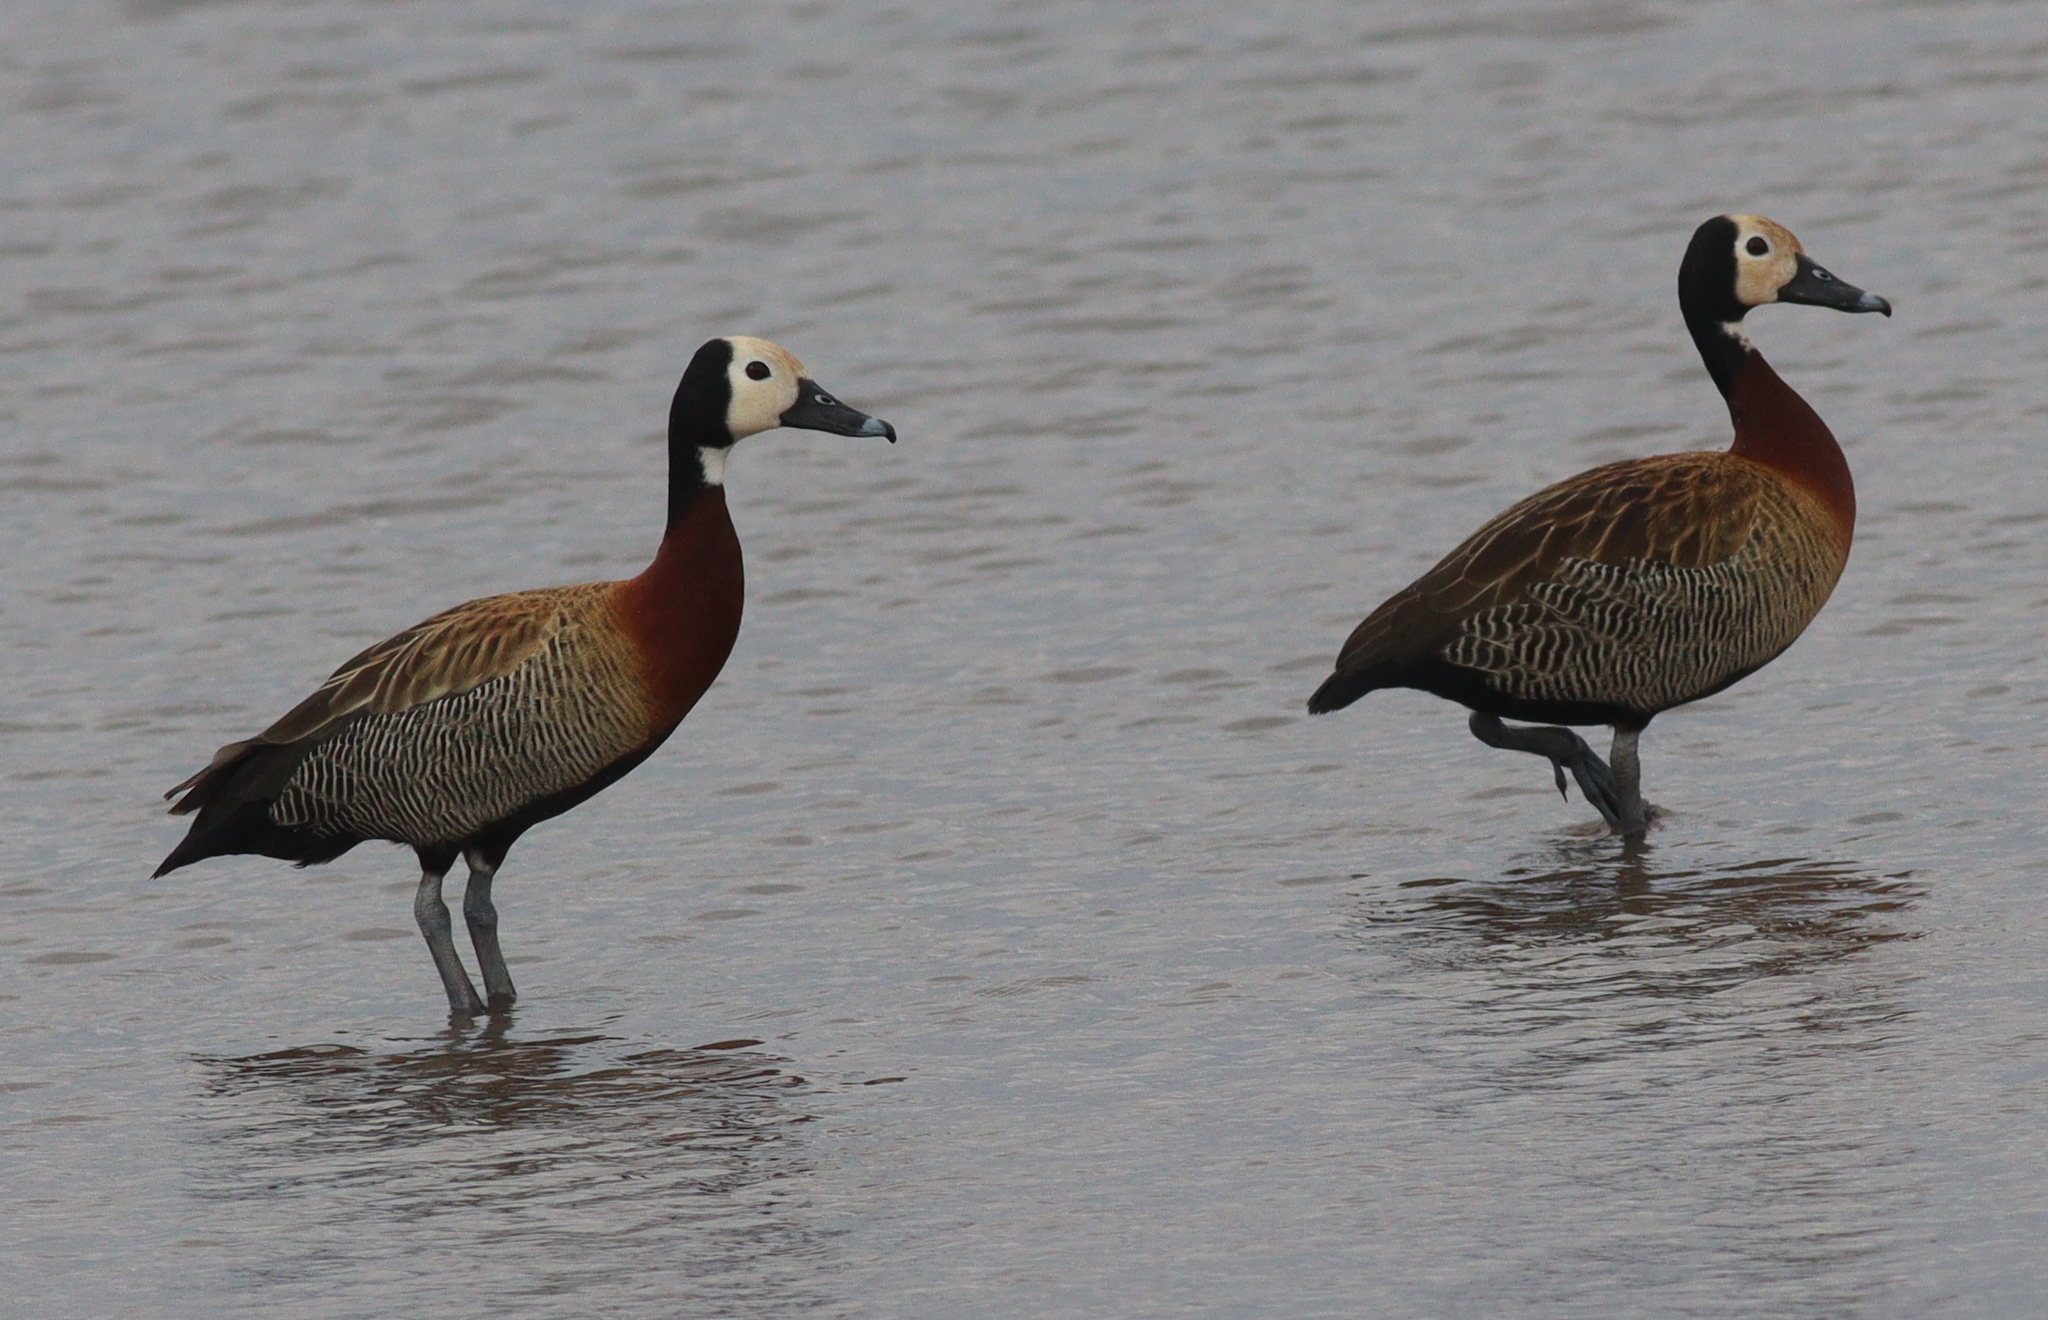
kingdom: Animalia
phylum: Chordata
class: Aves
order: Anseriformes
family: Anatidae
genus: Dendrocygna
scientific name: Dendrocygna viduata
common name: White-faced whistling duck
